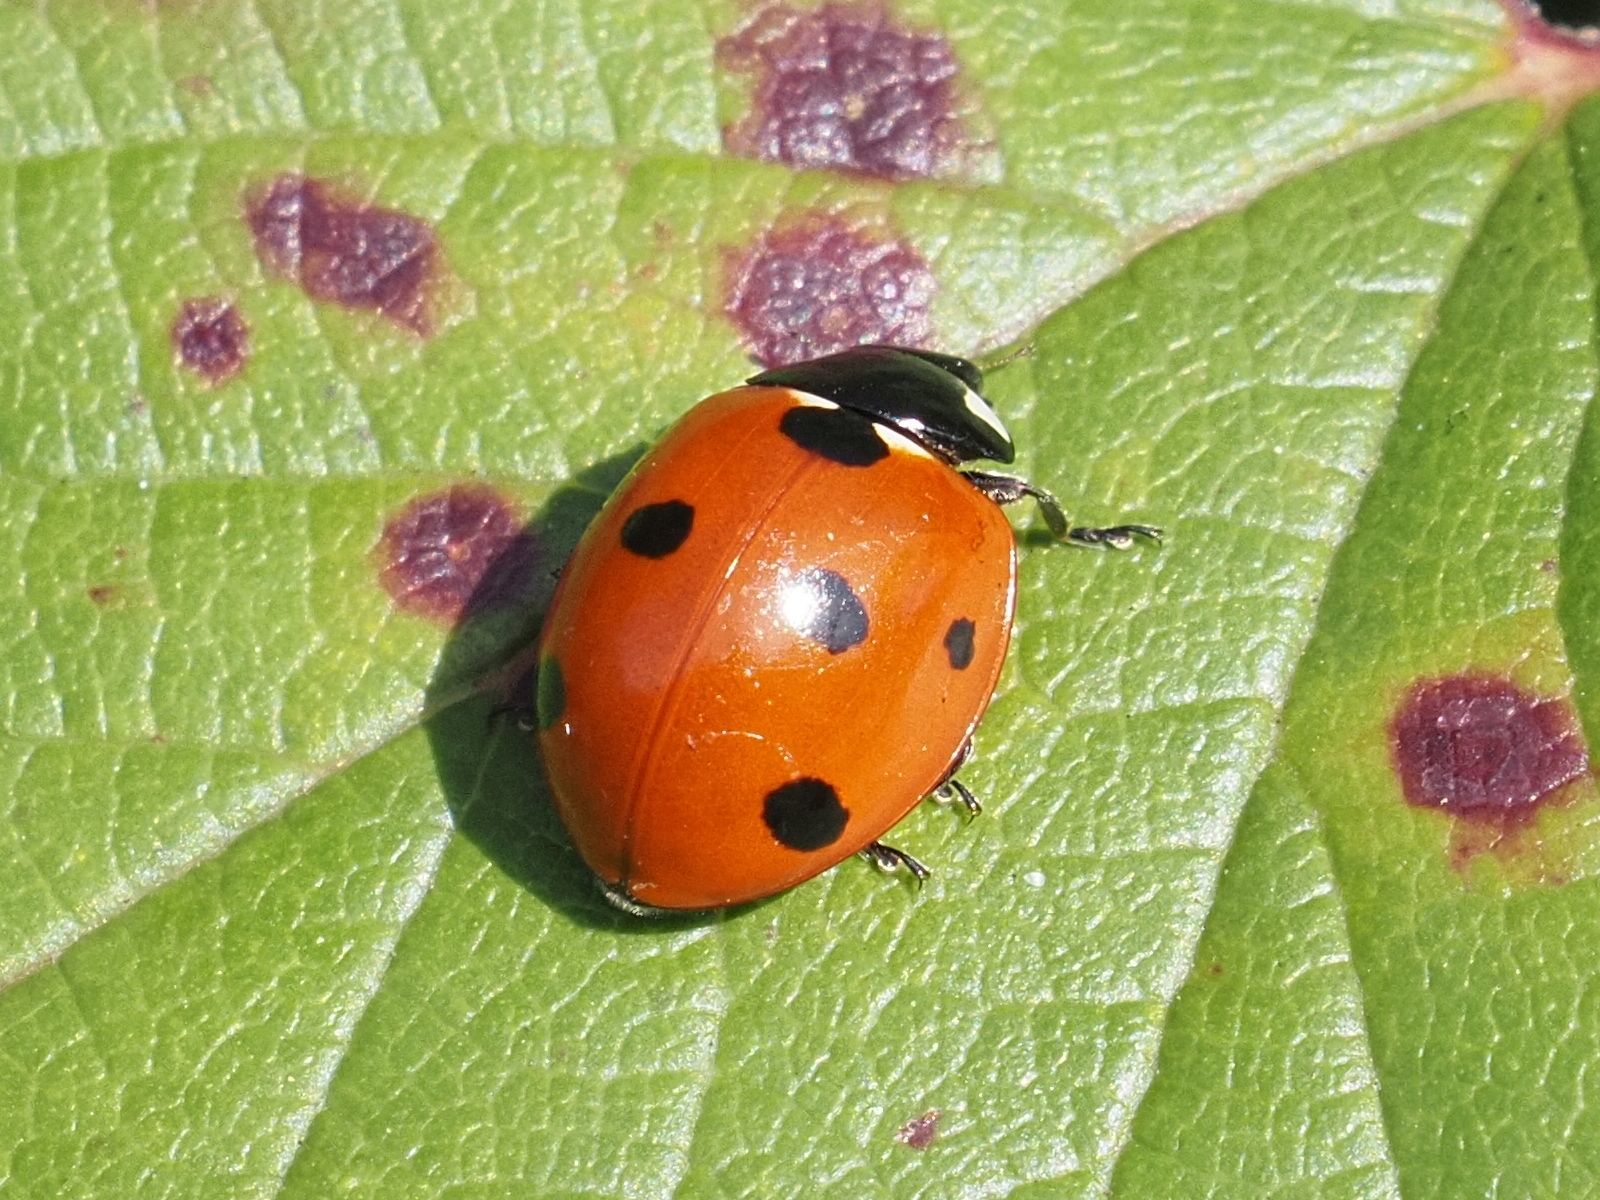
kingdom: Animalia
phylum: Arthropoda
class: Insecta
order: Coleoptera
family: Coccinellidae
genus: Coccinella
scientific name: Coccinella septempunctata
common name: Sevenspotted lady beetle
